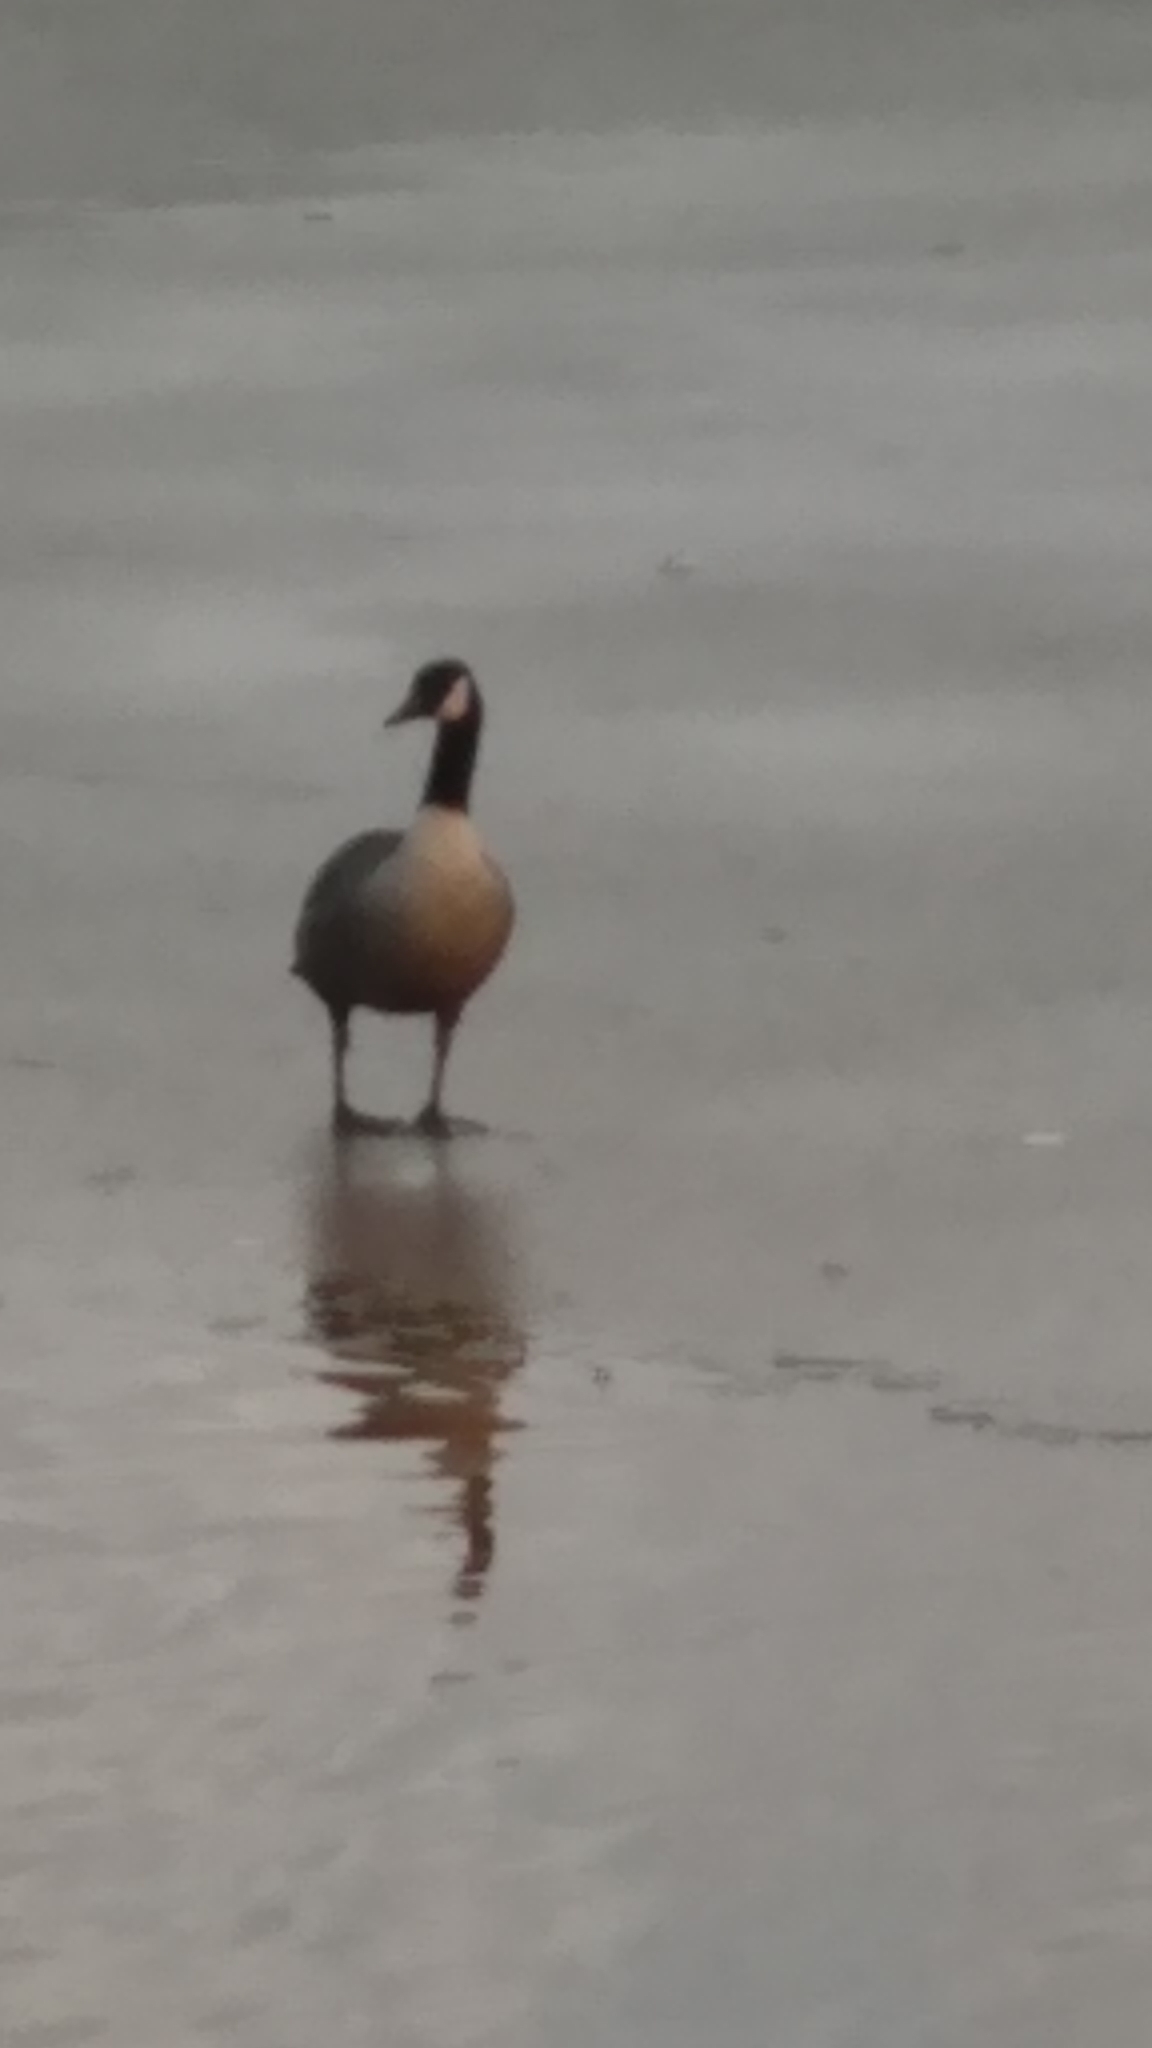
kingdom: Animalia
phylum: Chordata
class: Aves
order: Anseriformes
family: Anatidae
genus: Branta
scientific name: Branta canadensis
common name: Canada goose
